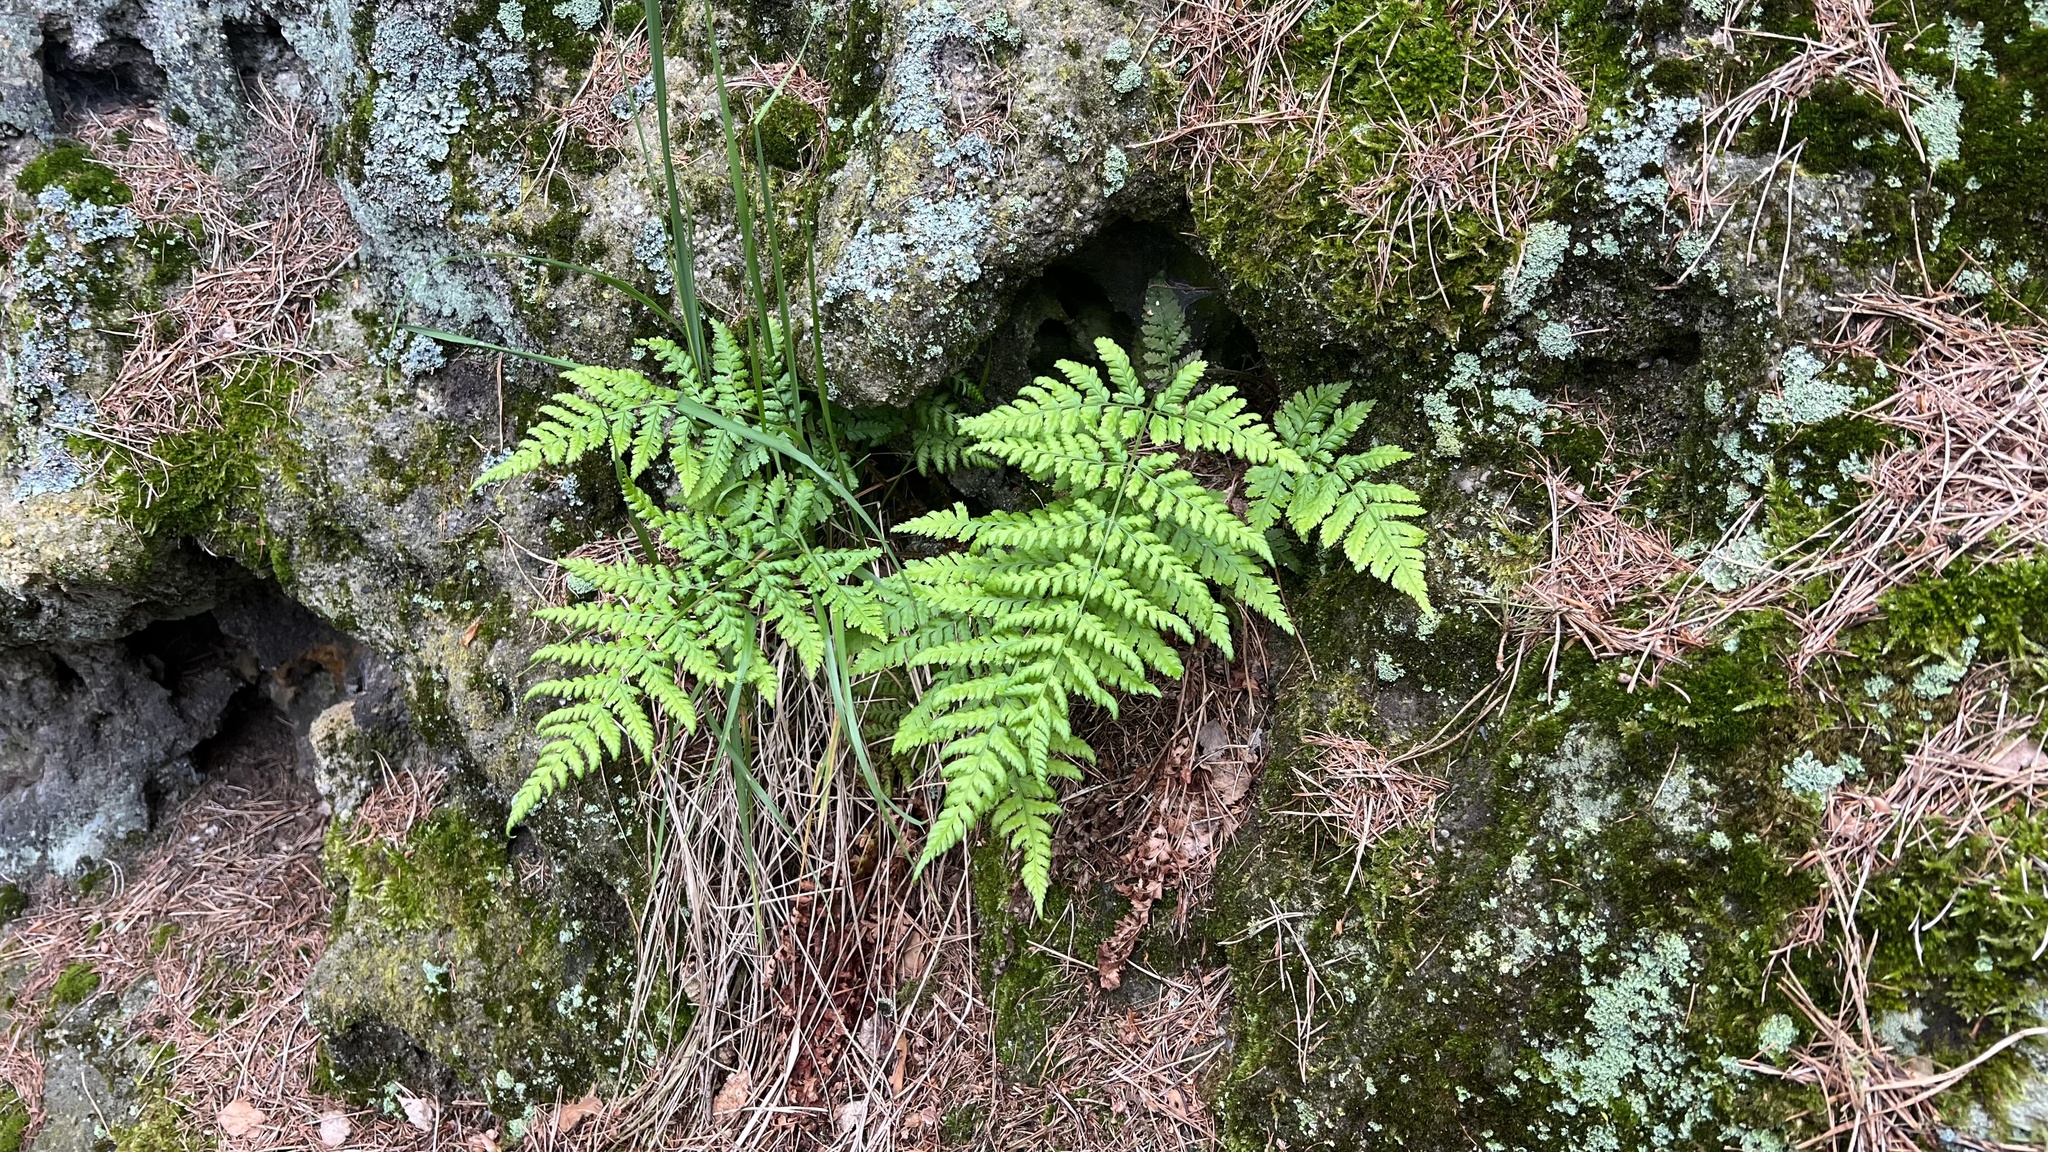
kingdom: Plantae
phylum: Tracheophyta
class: Polypodiopsida
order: Polypodiales
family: Dryopteridaceae
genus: Dryopteris
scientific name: Dryopteris dilatata
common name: Broad buckler-fern
